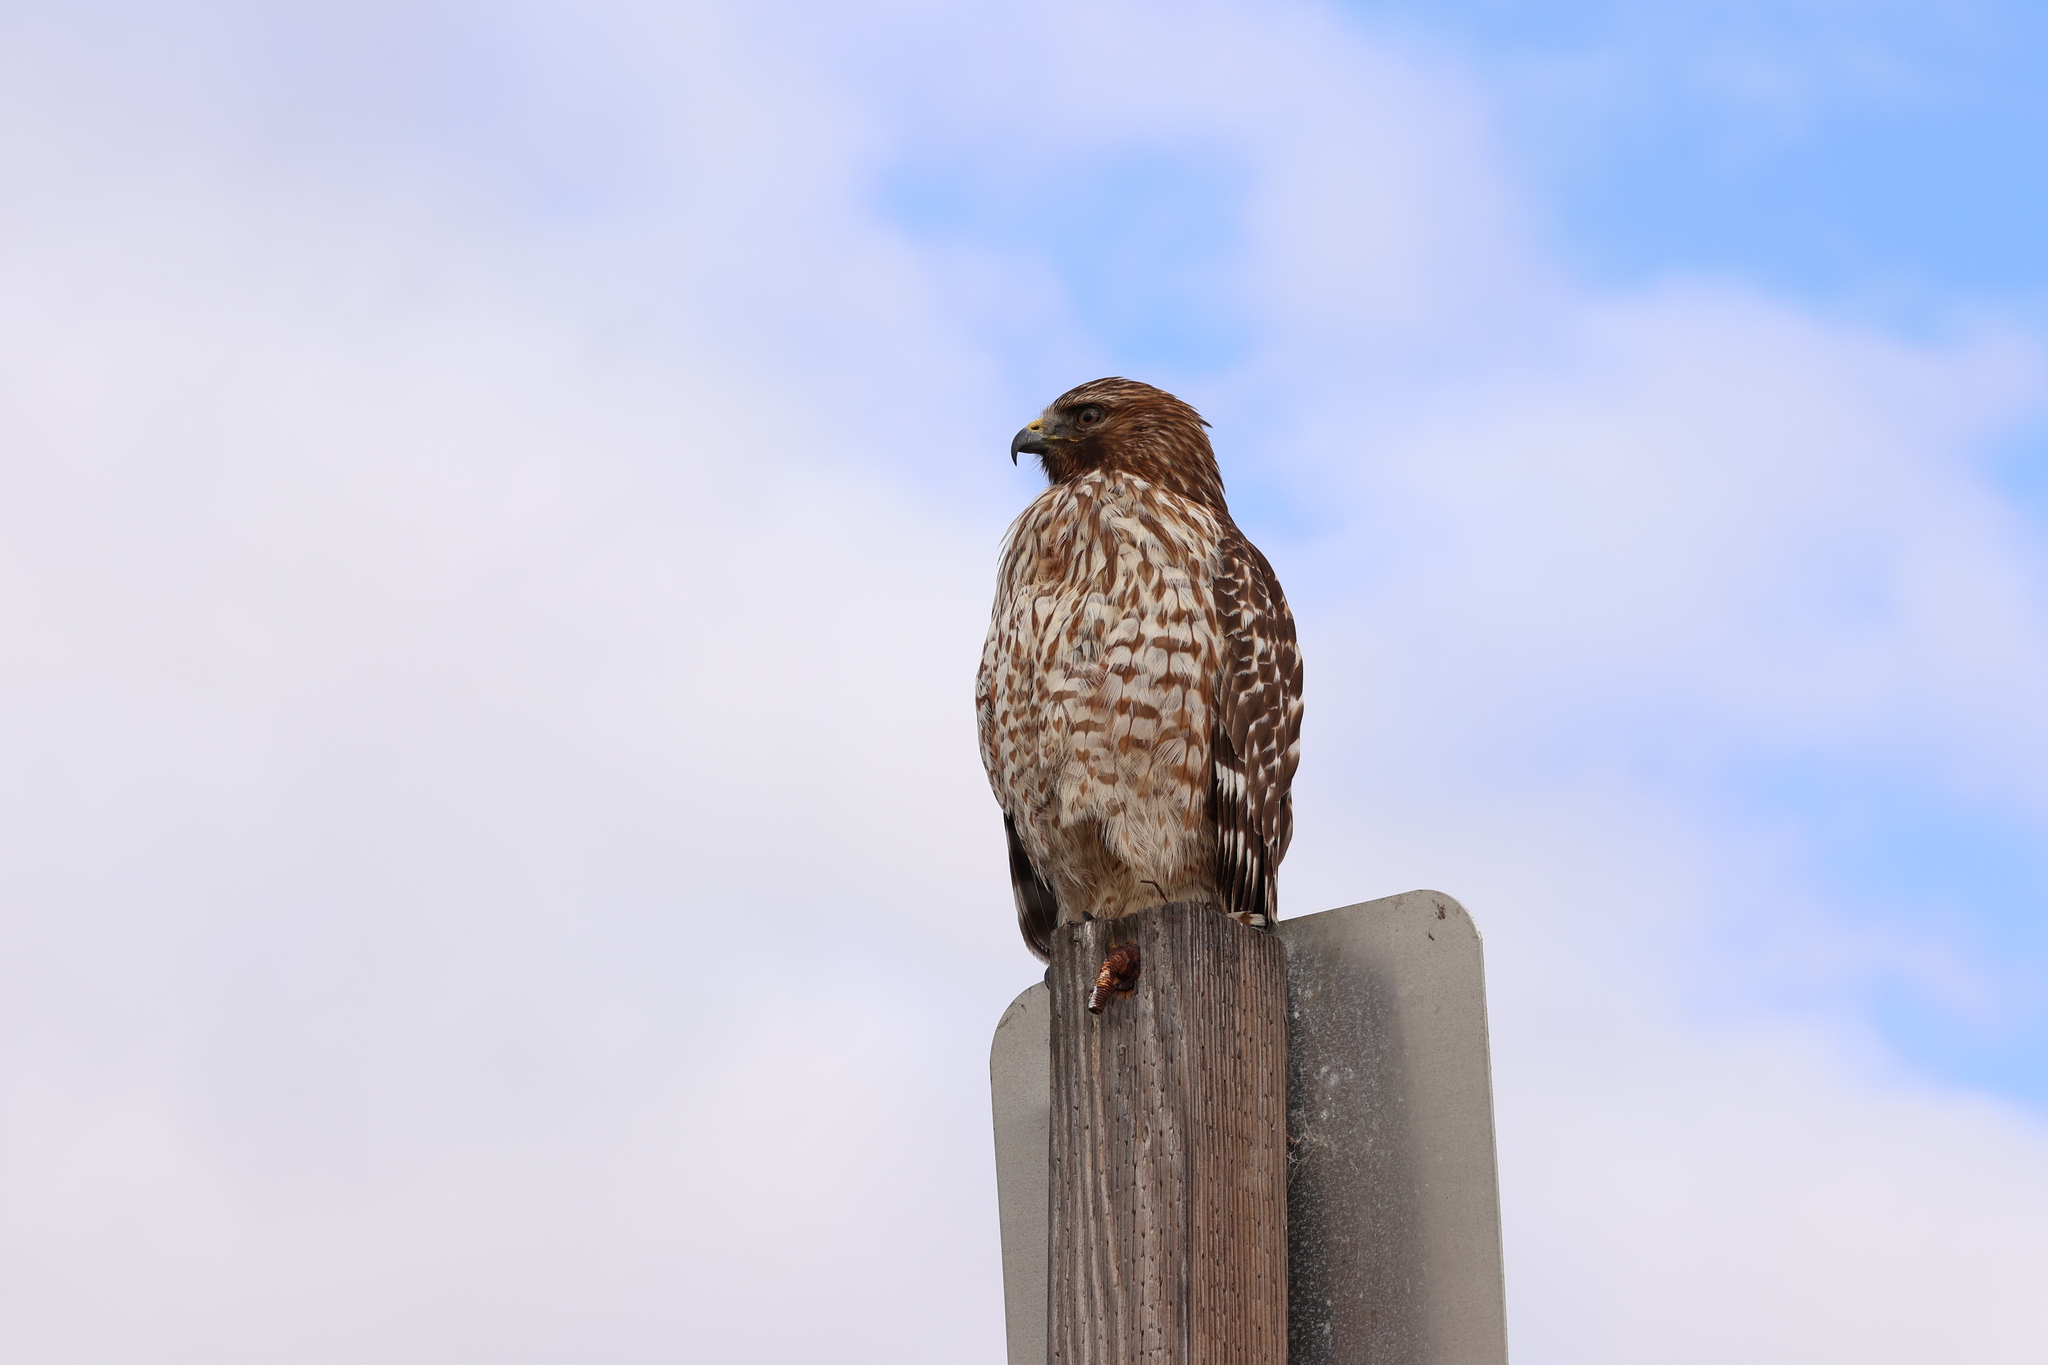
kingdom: Animalia
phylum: Chordata
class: Aves
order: Accipitriformes
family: Accipitridae
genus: Buteo
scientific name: Buteo lineatus
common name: Red-shouldered hawk
